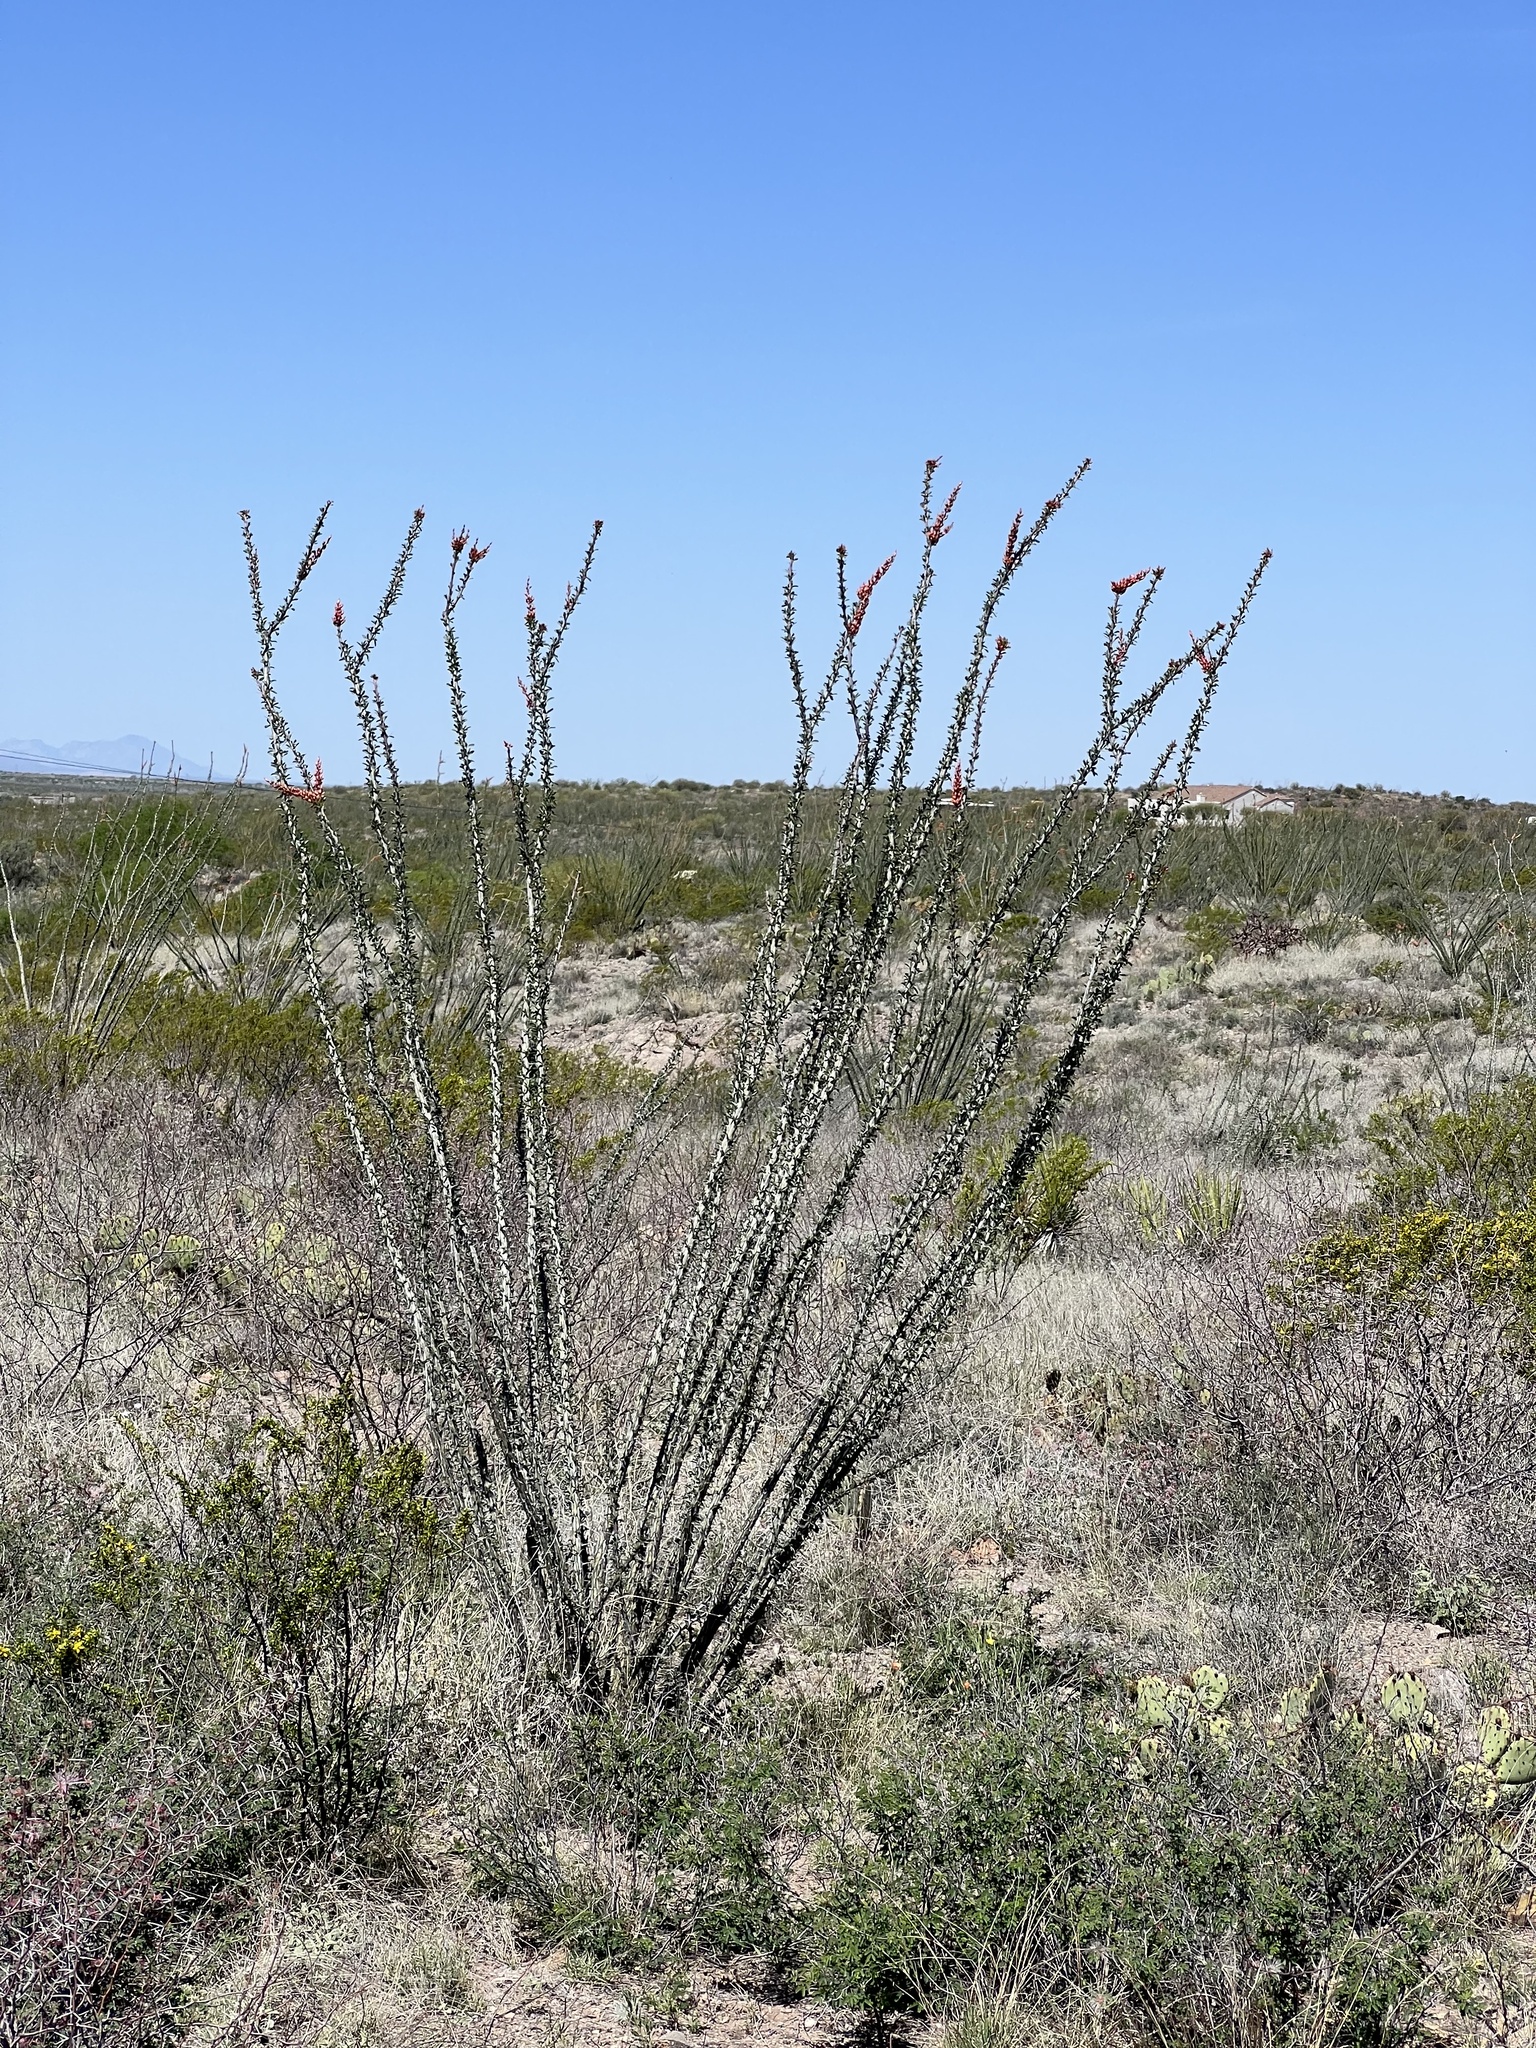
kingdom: Plantae
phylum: Tracheophyta
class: Magnoliopsida
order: Ericales
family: Fouquieriaceae
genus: Fouquieria
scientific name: Fouquieria splendens
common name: Vine-cactus
